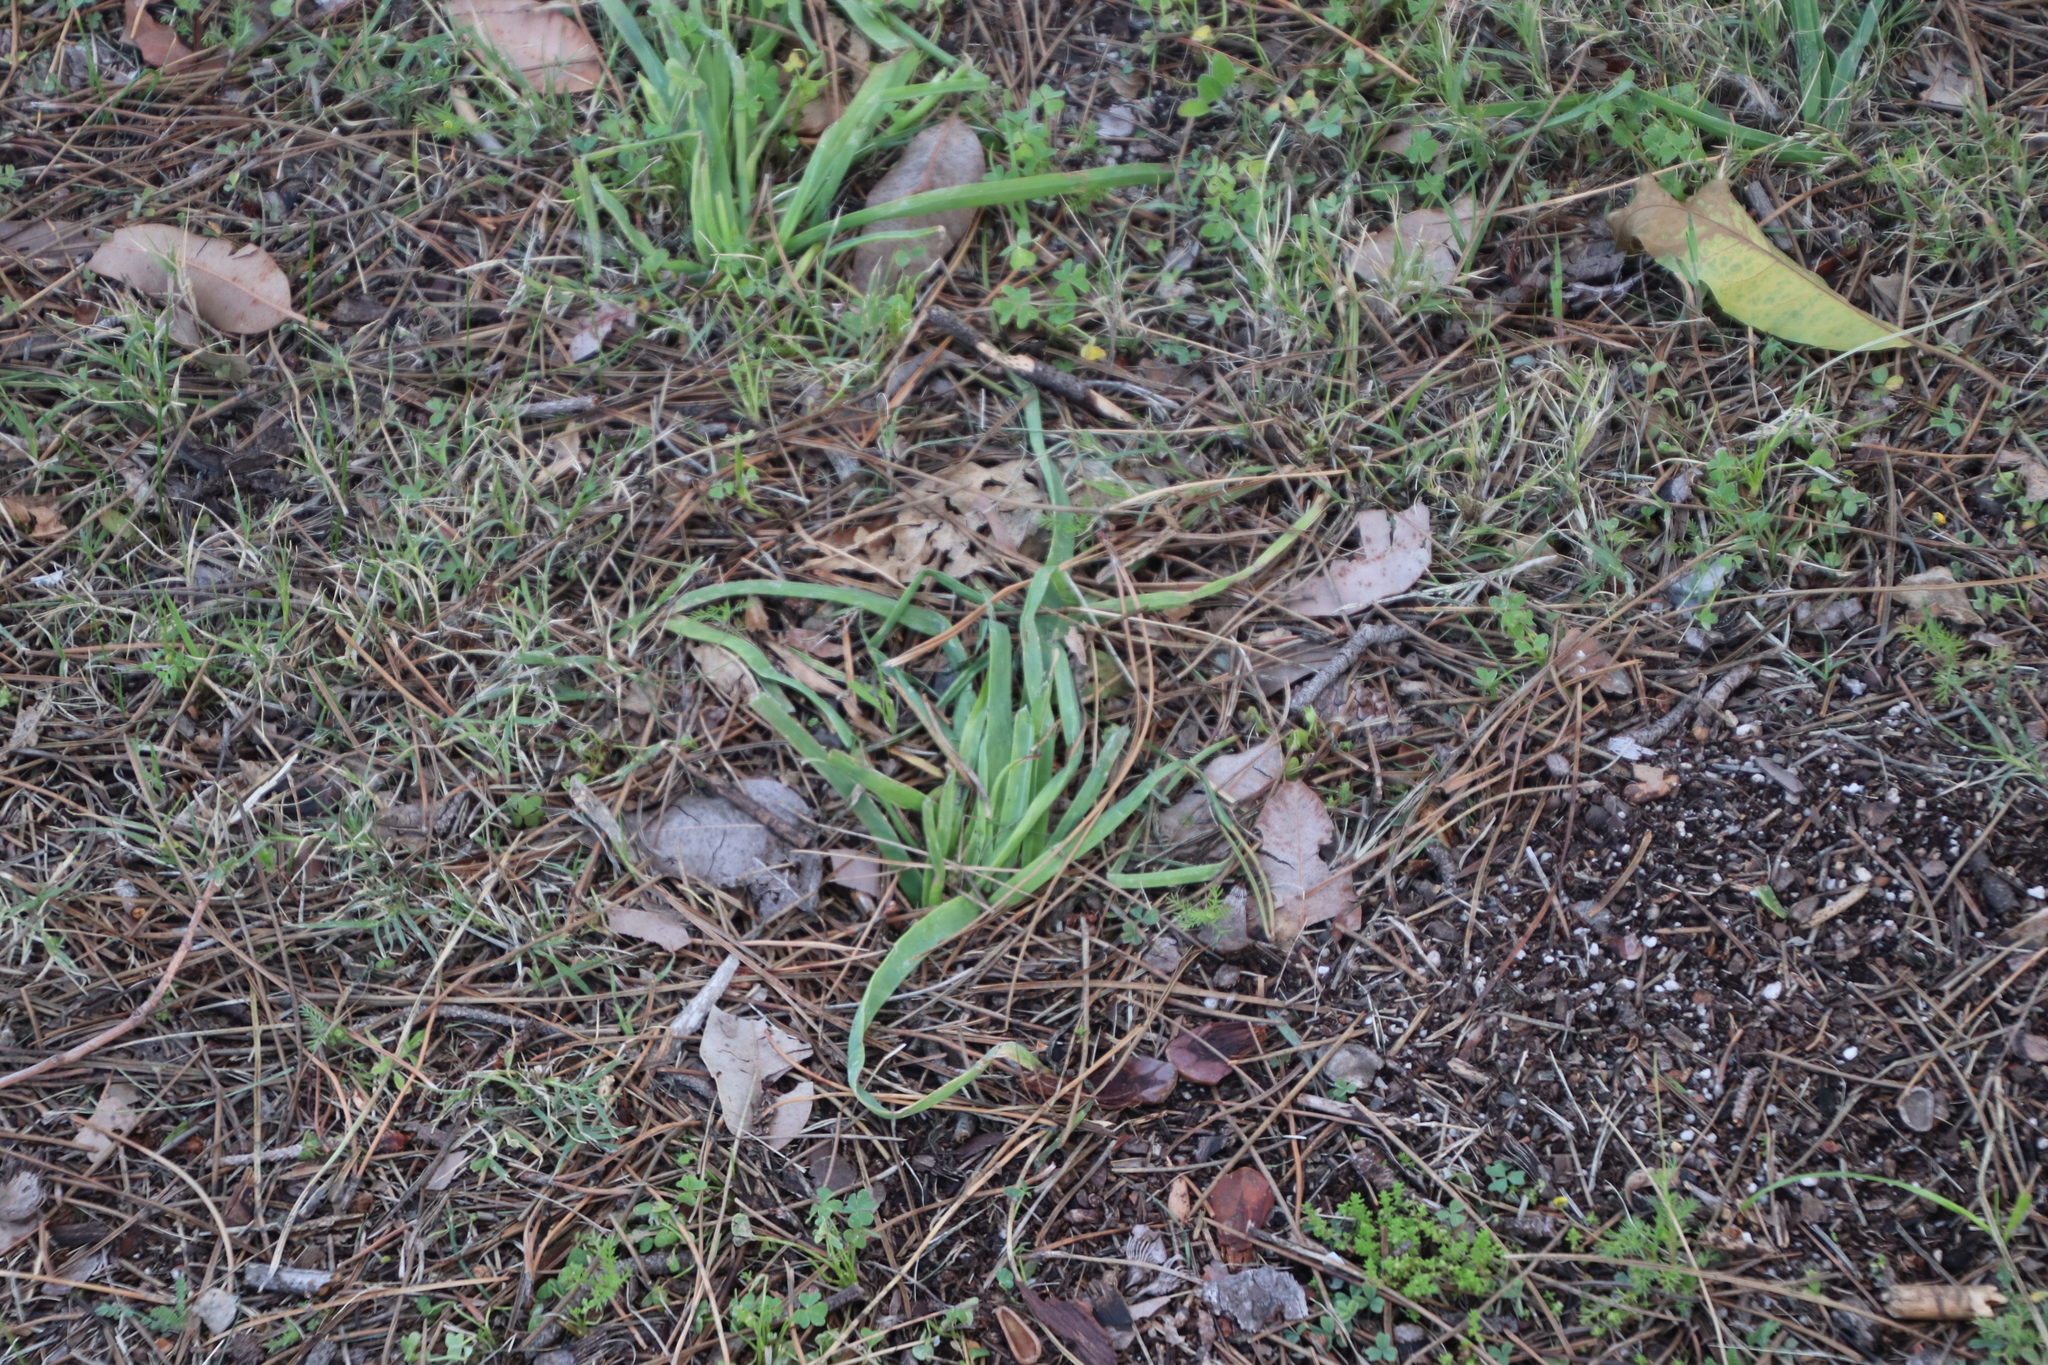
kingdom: Plantae
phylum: Tracheophyta
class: Liliopsida
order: Asparagales
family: Asphodelaceae
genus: Trachyandra
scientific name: Trachyandra ciliata
